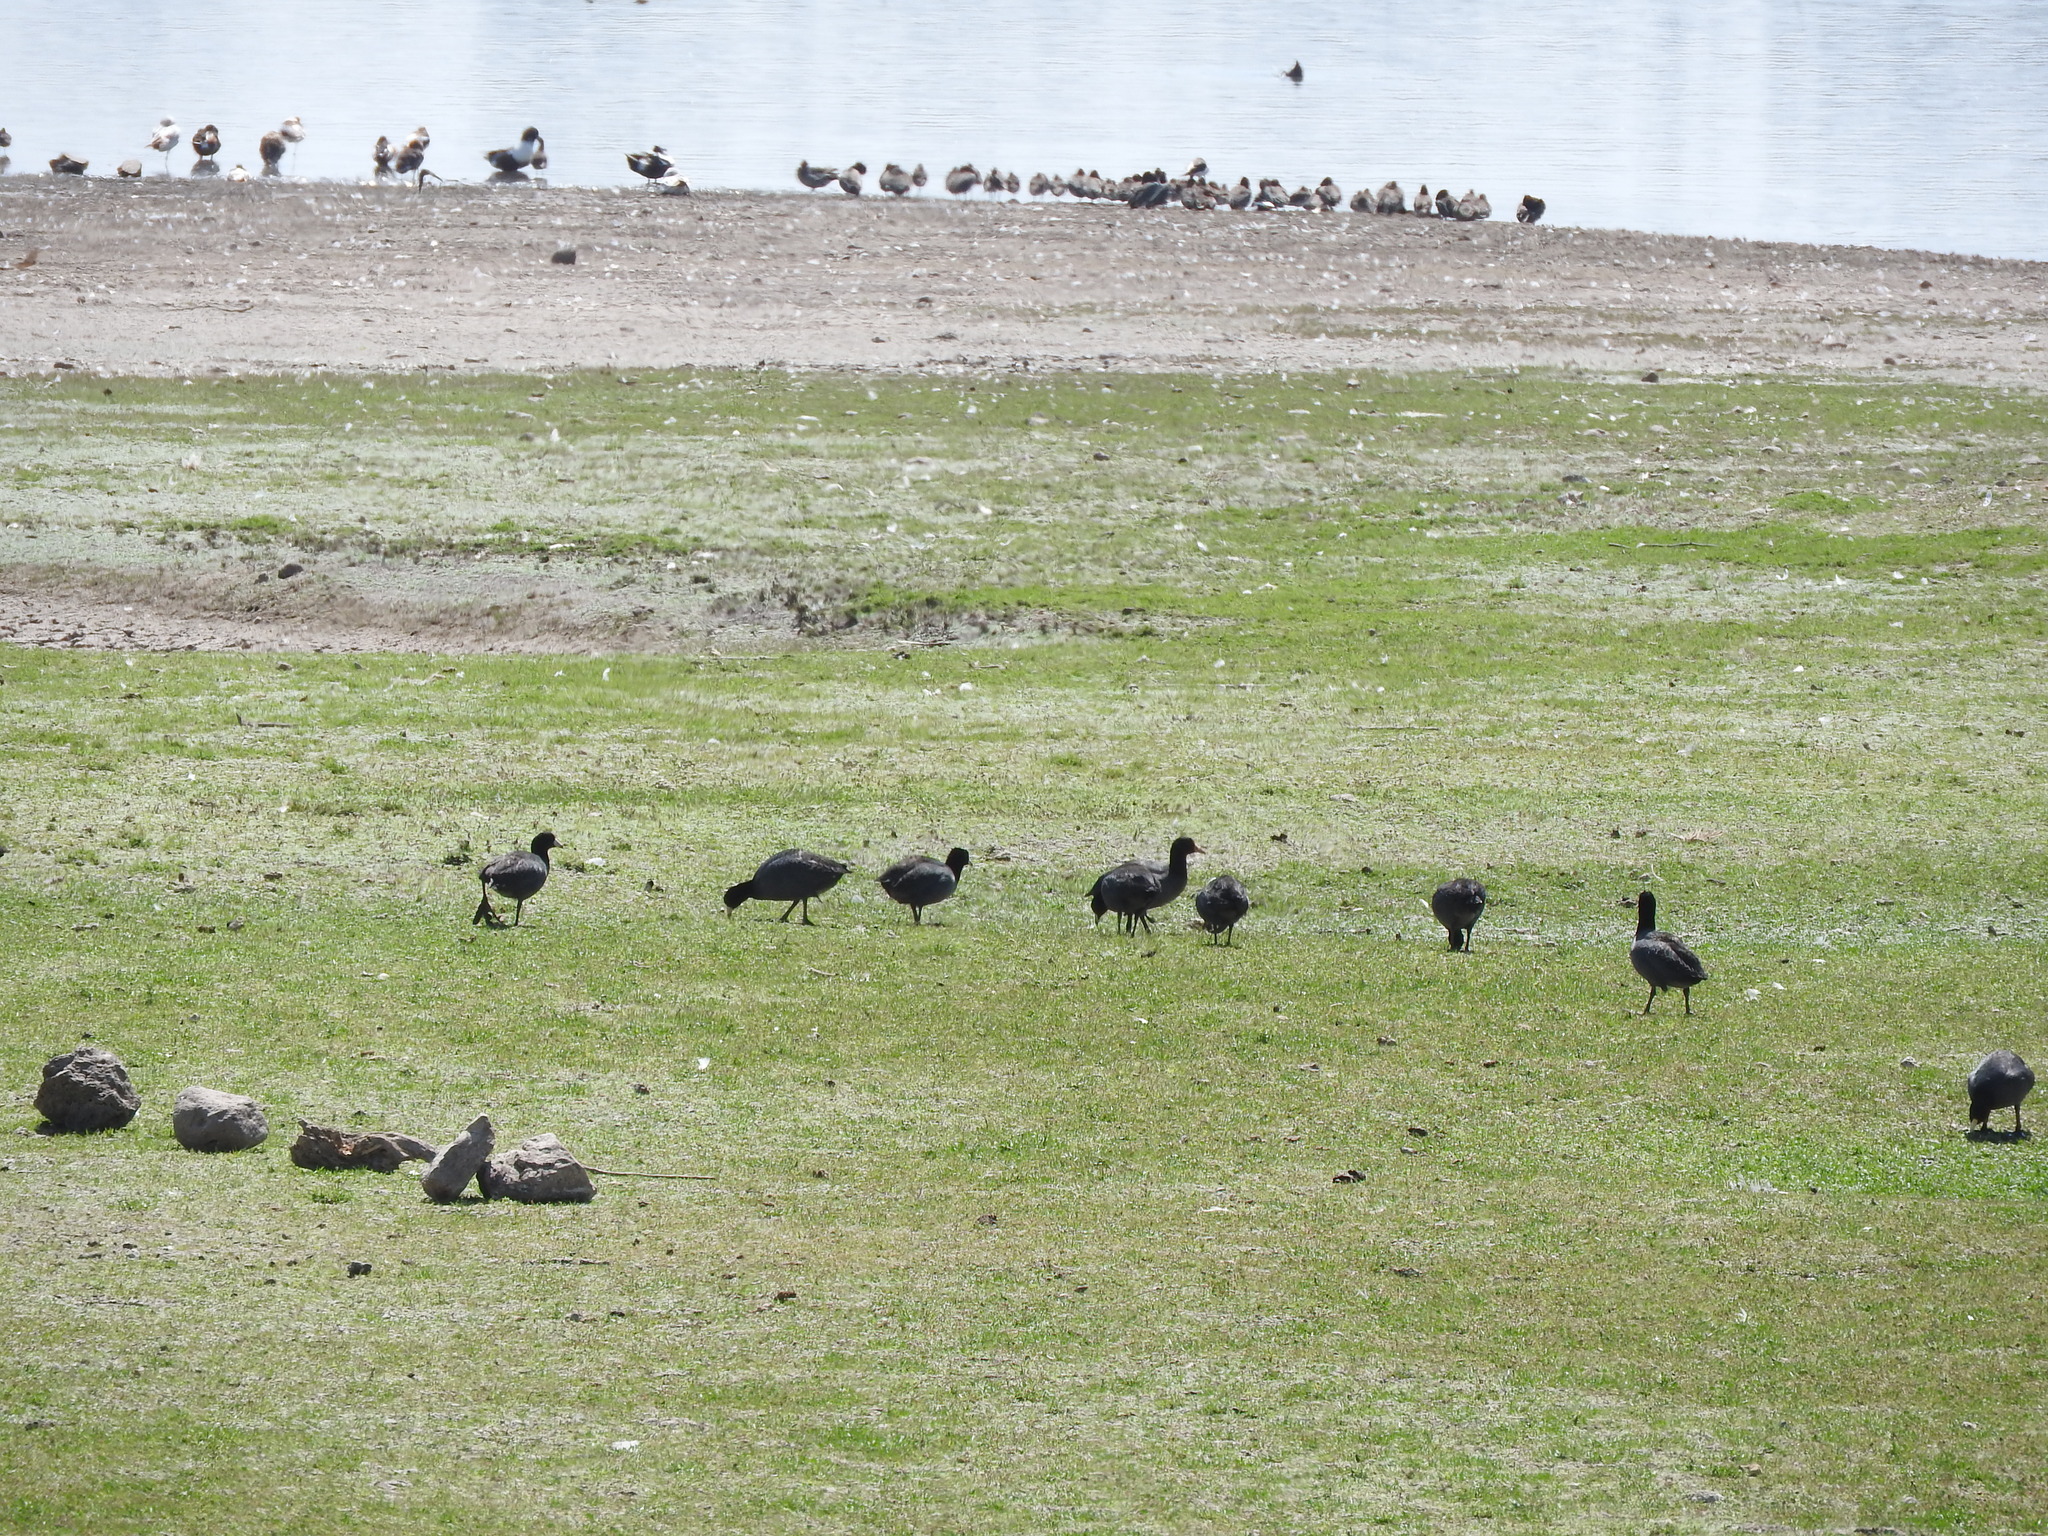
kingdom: Animalia
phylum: Chordata
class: Aves
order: Gruiformes
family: Rallidae
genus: Fulica
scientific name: Fulica americana
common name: American coot
